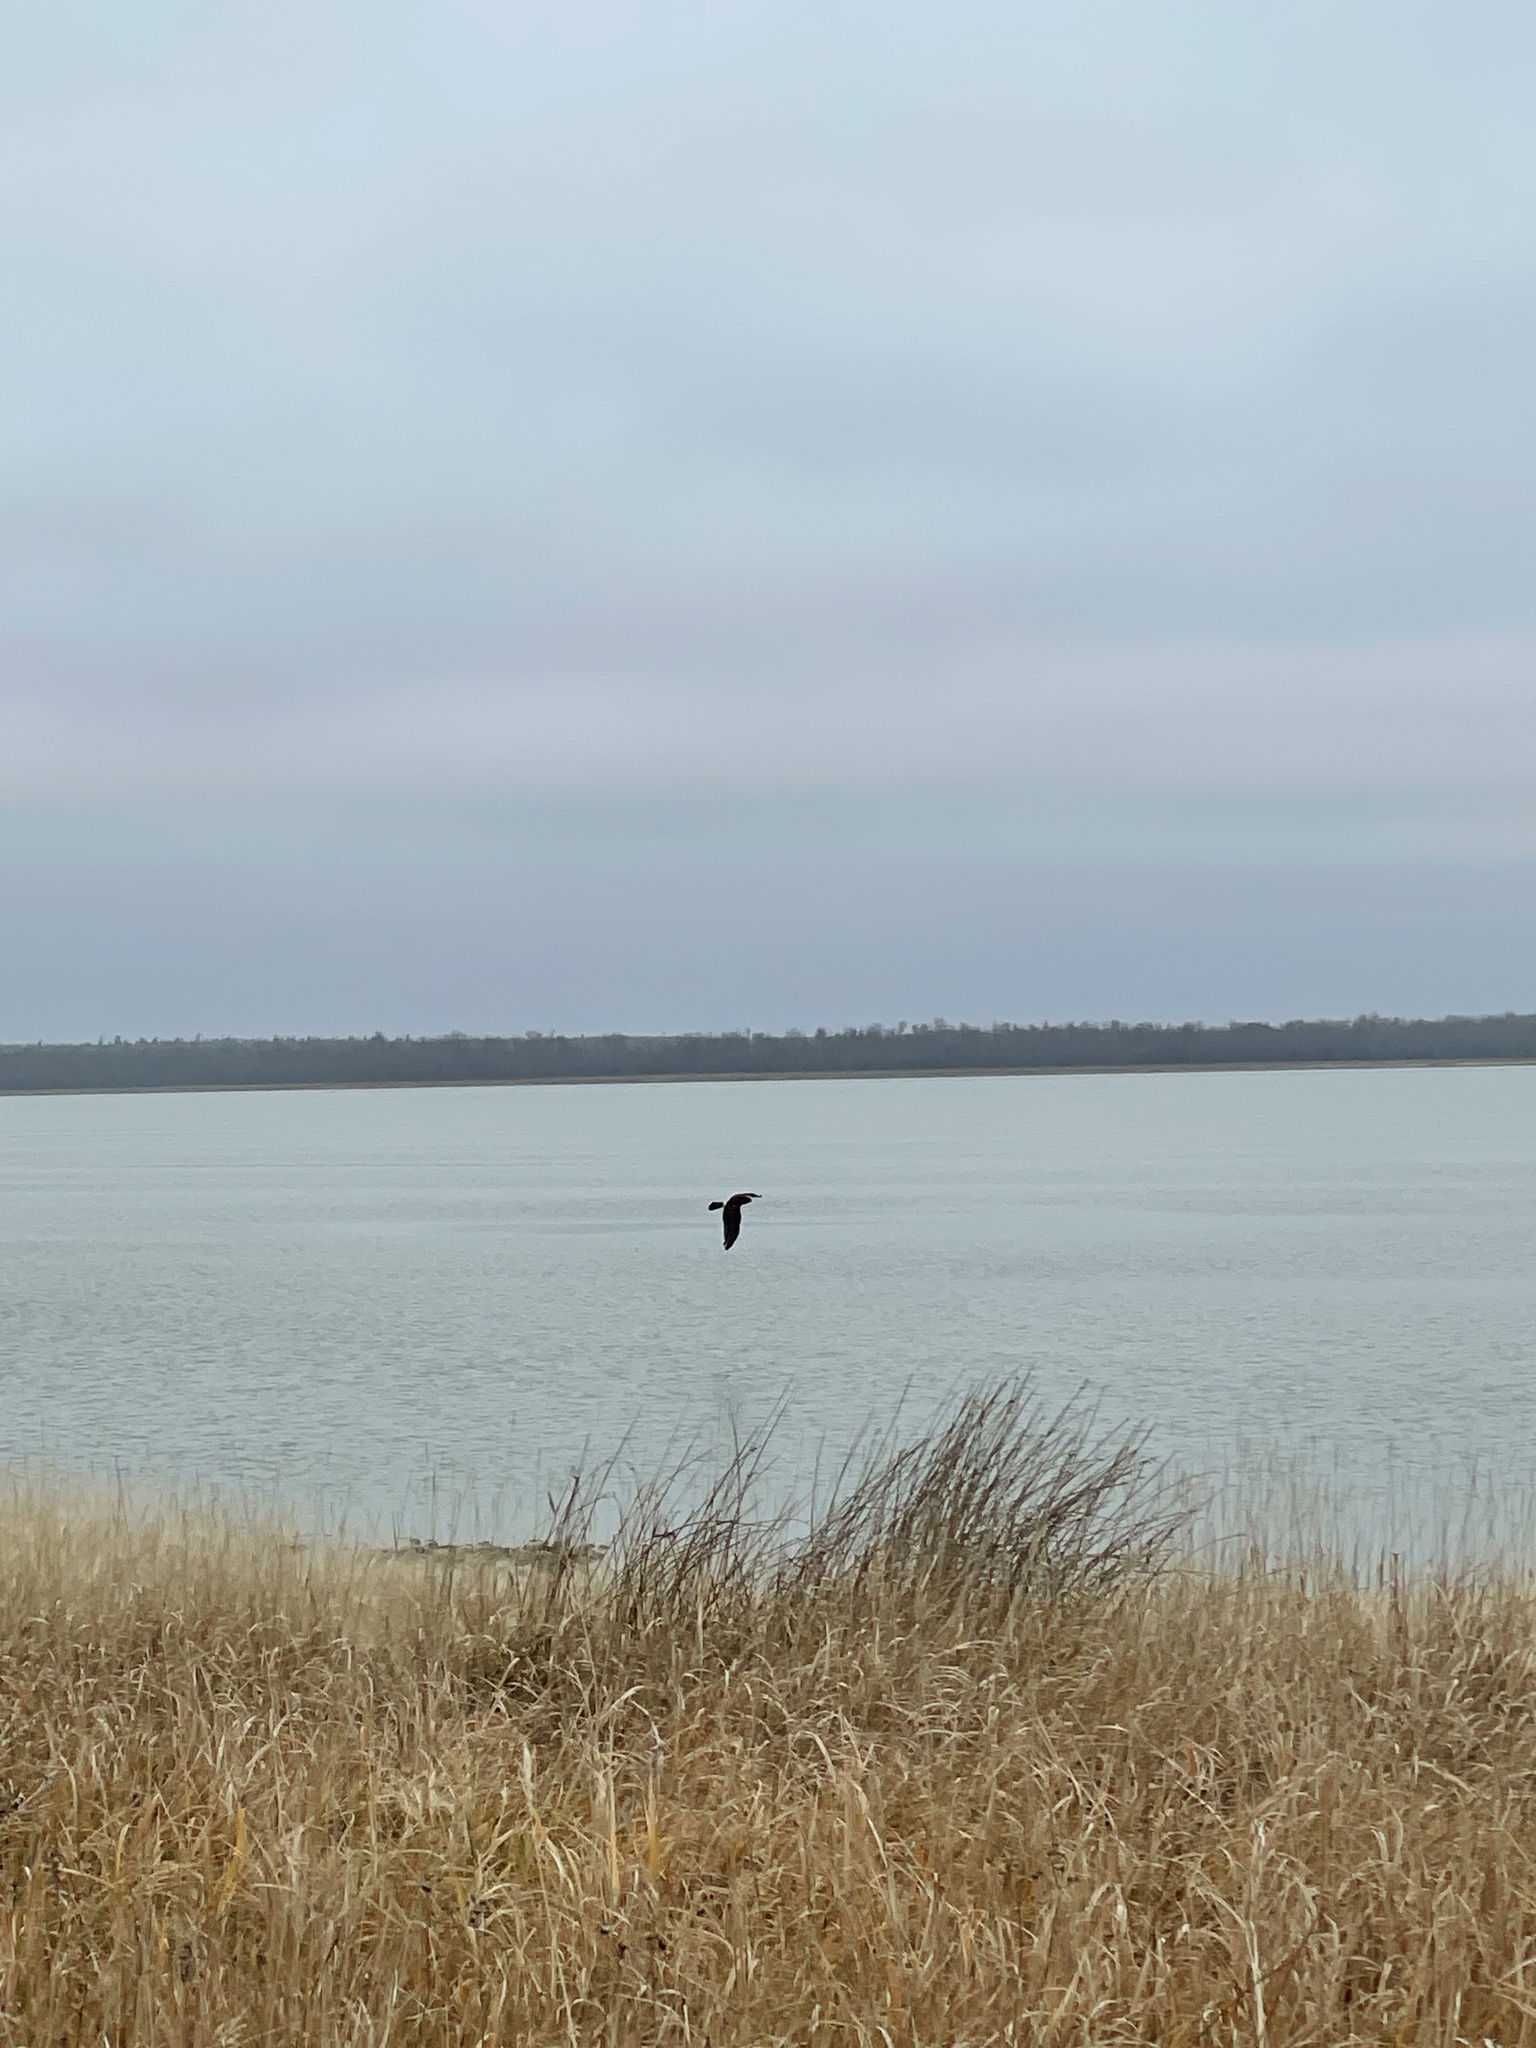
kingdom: Animalia
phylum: Chordata
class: Aves
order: Accipitriformes
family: Accipitridae
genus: Circus
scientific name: Circus cyaneus
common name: Hen harrier
